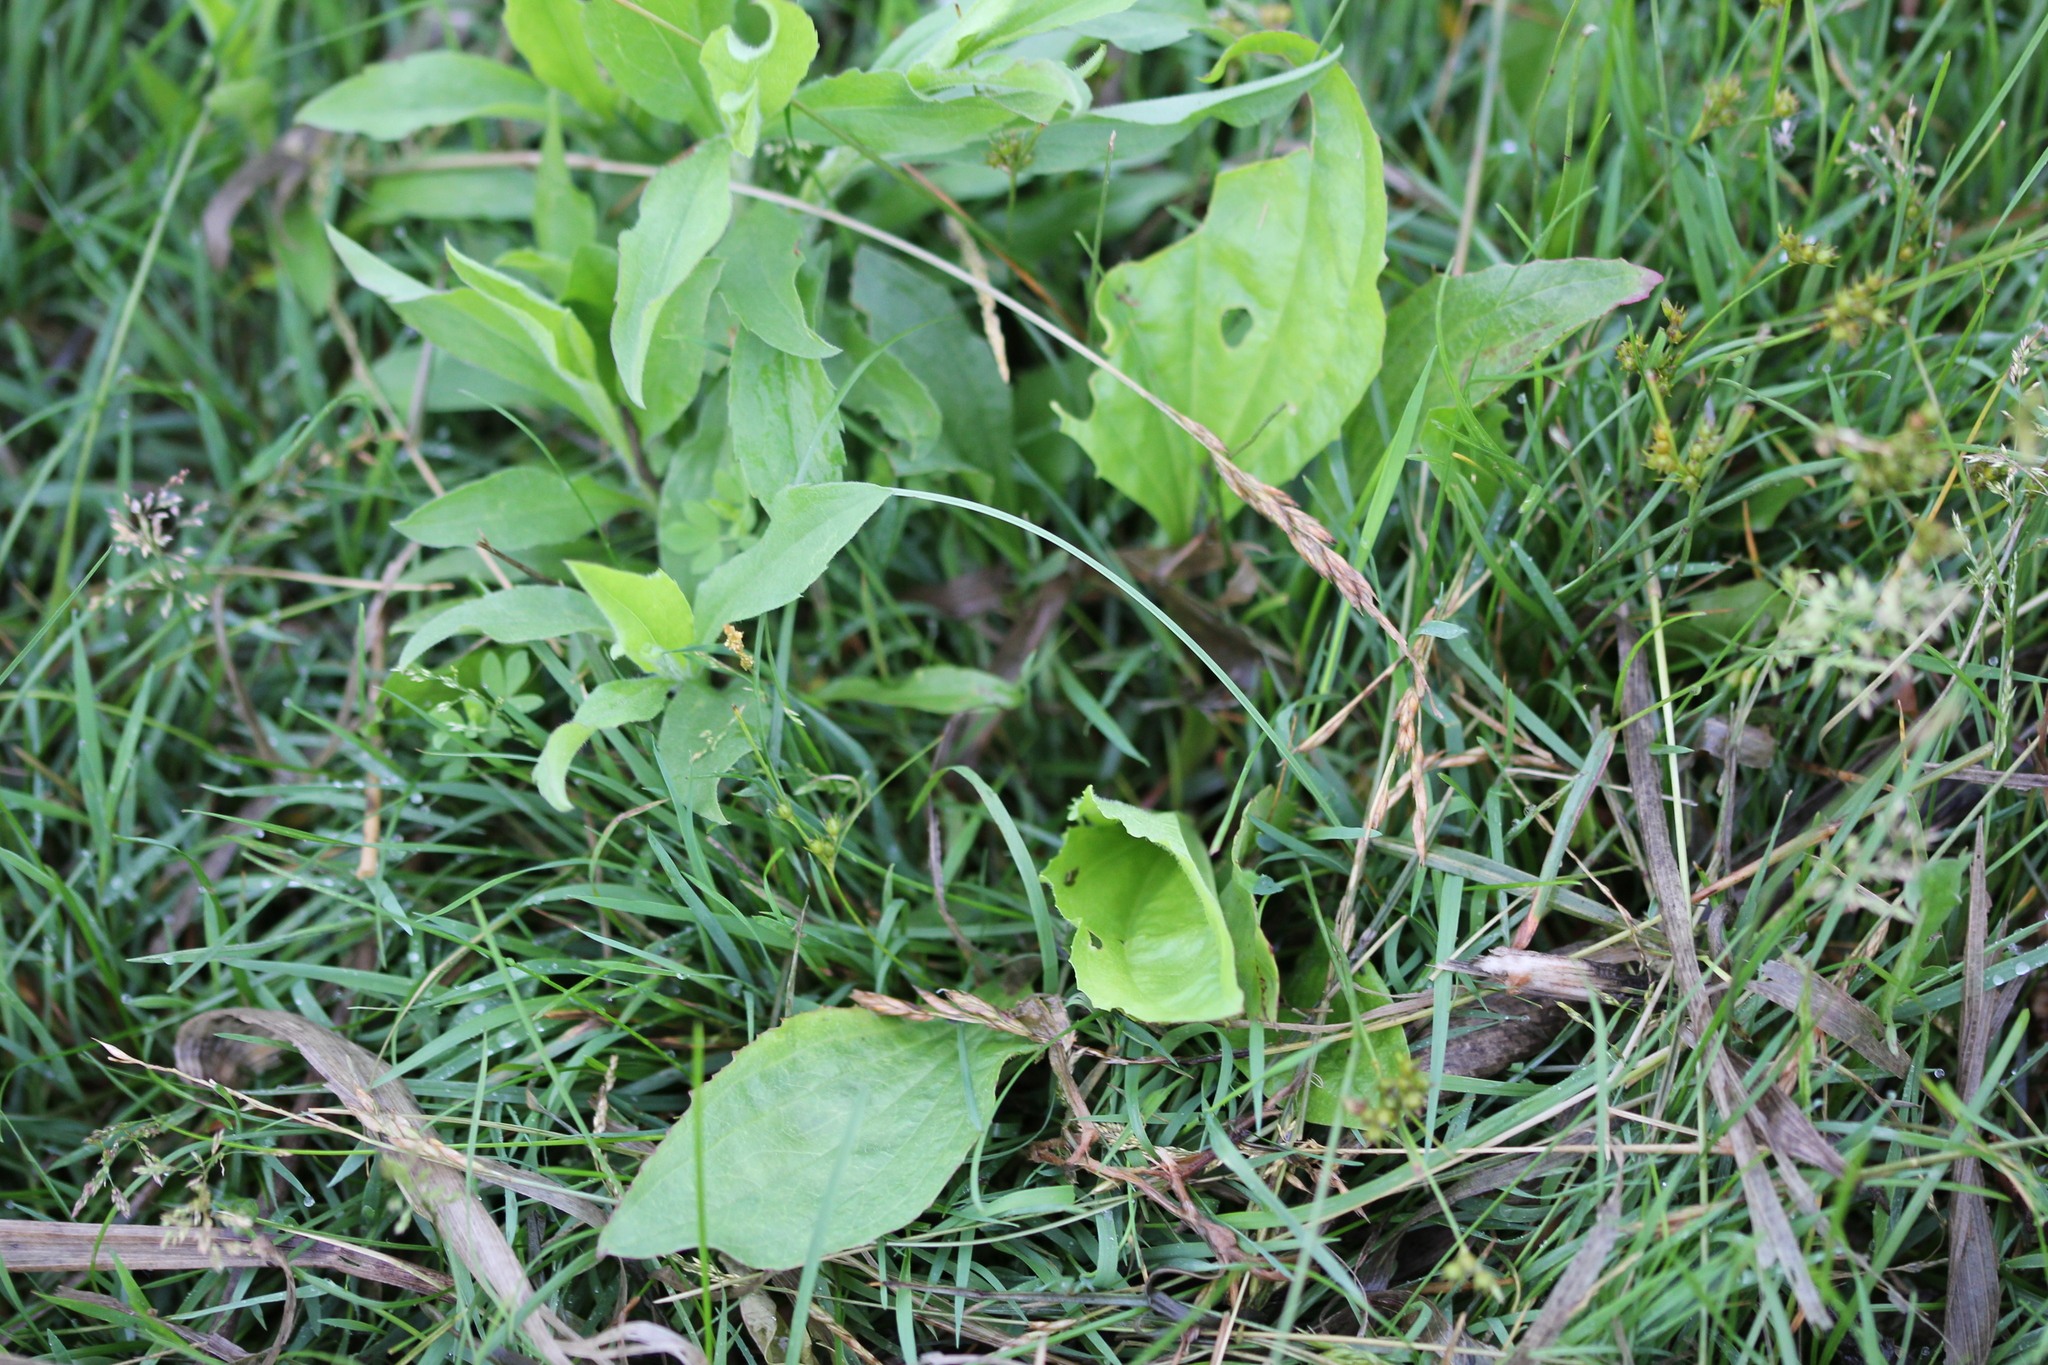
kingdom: Plantae
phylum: Tracheophyta
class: Magnoliopsida
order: Lamiales
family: Plantaginaceae
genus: Plantago
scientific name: Plantago rugelii
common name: American plantain
